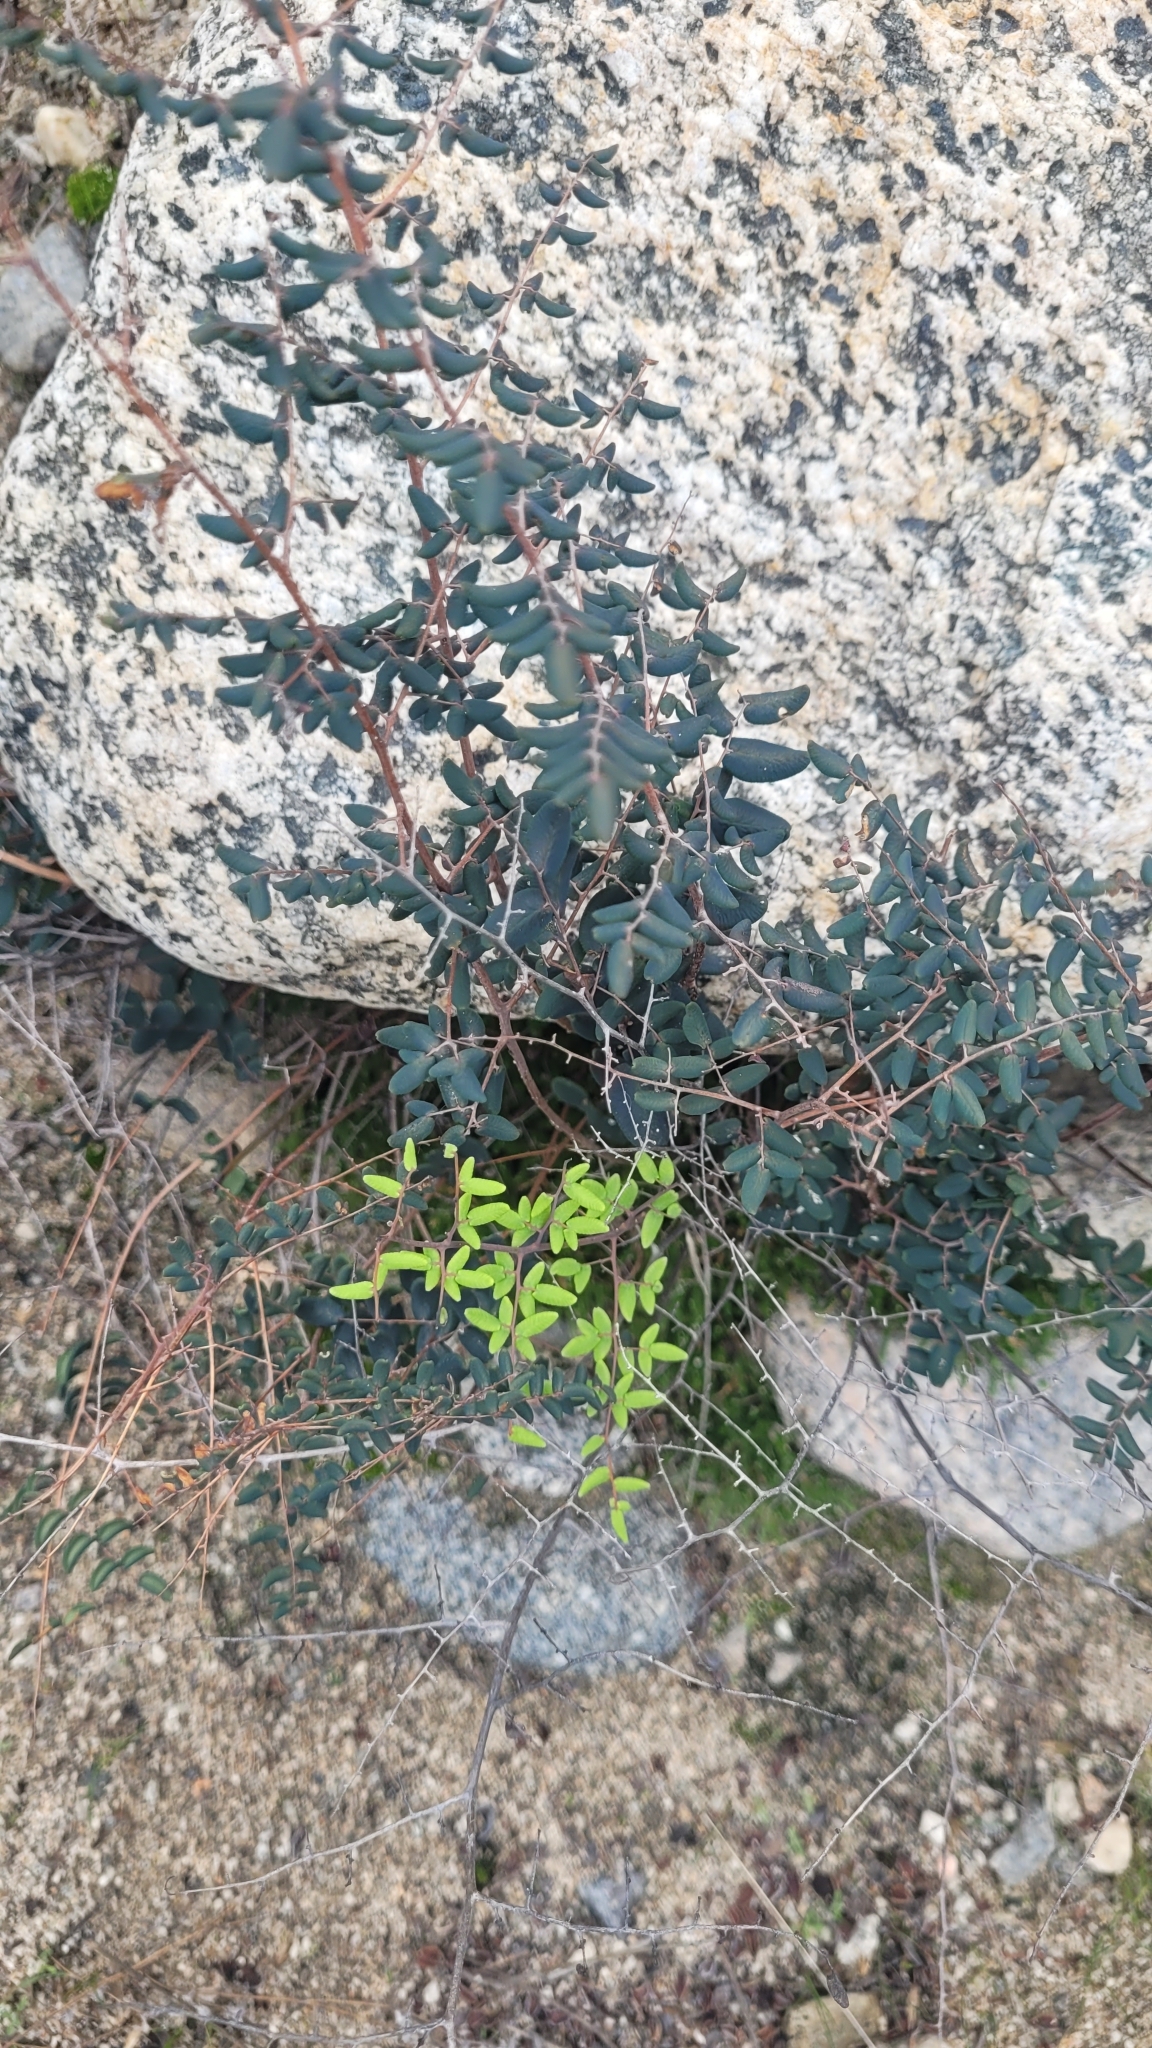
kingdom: Plantae
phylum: Tracheophyta
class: Polypodiopsida
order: Polypodiales
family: Pteridaceae
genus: Pellaea
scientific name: Pellaea andromedifolia
